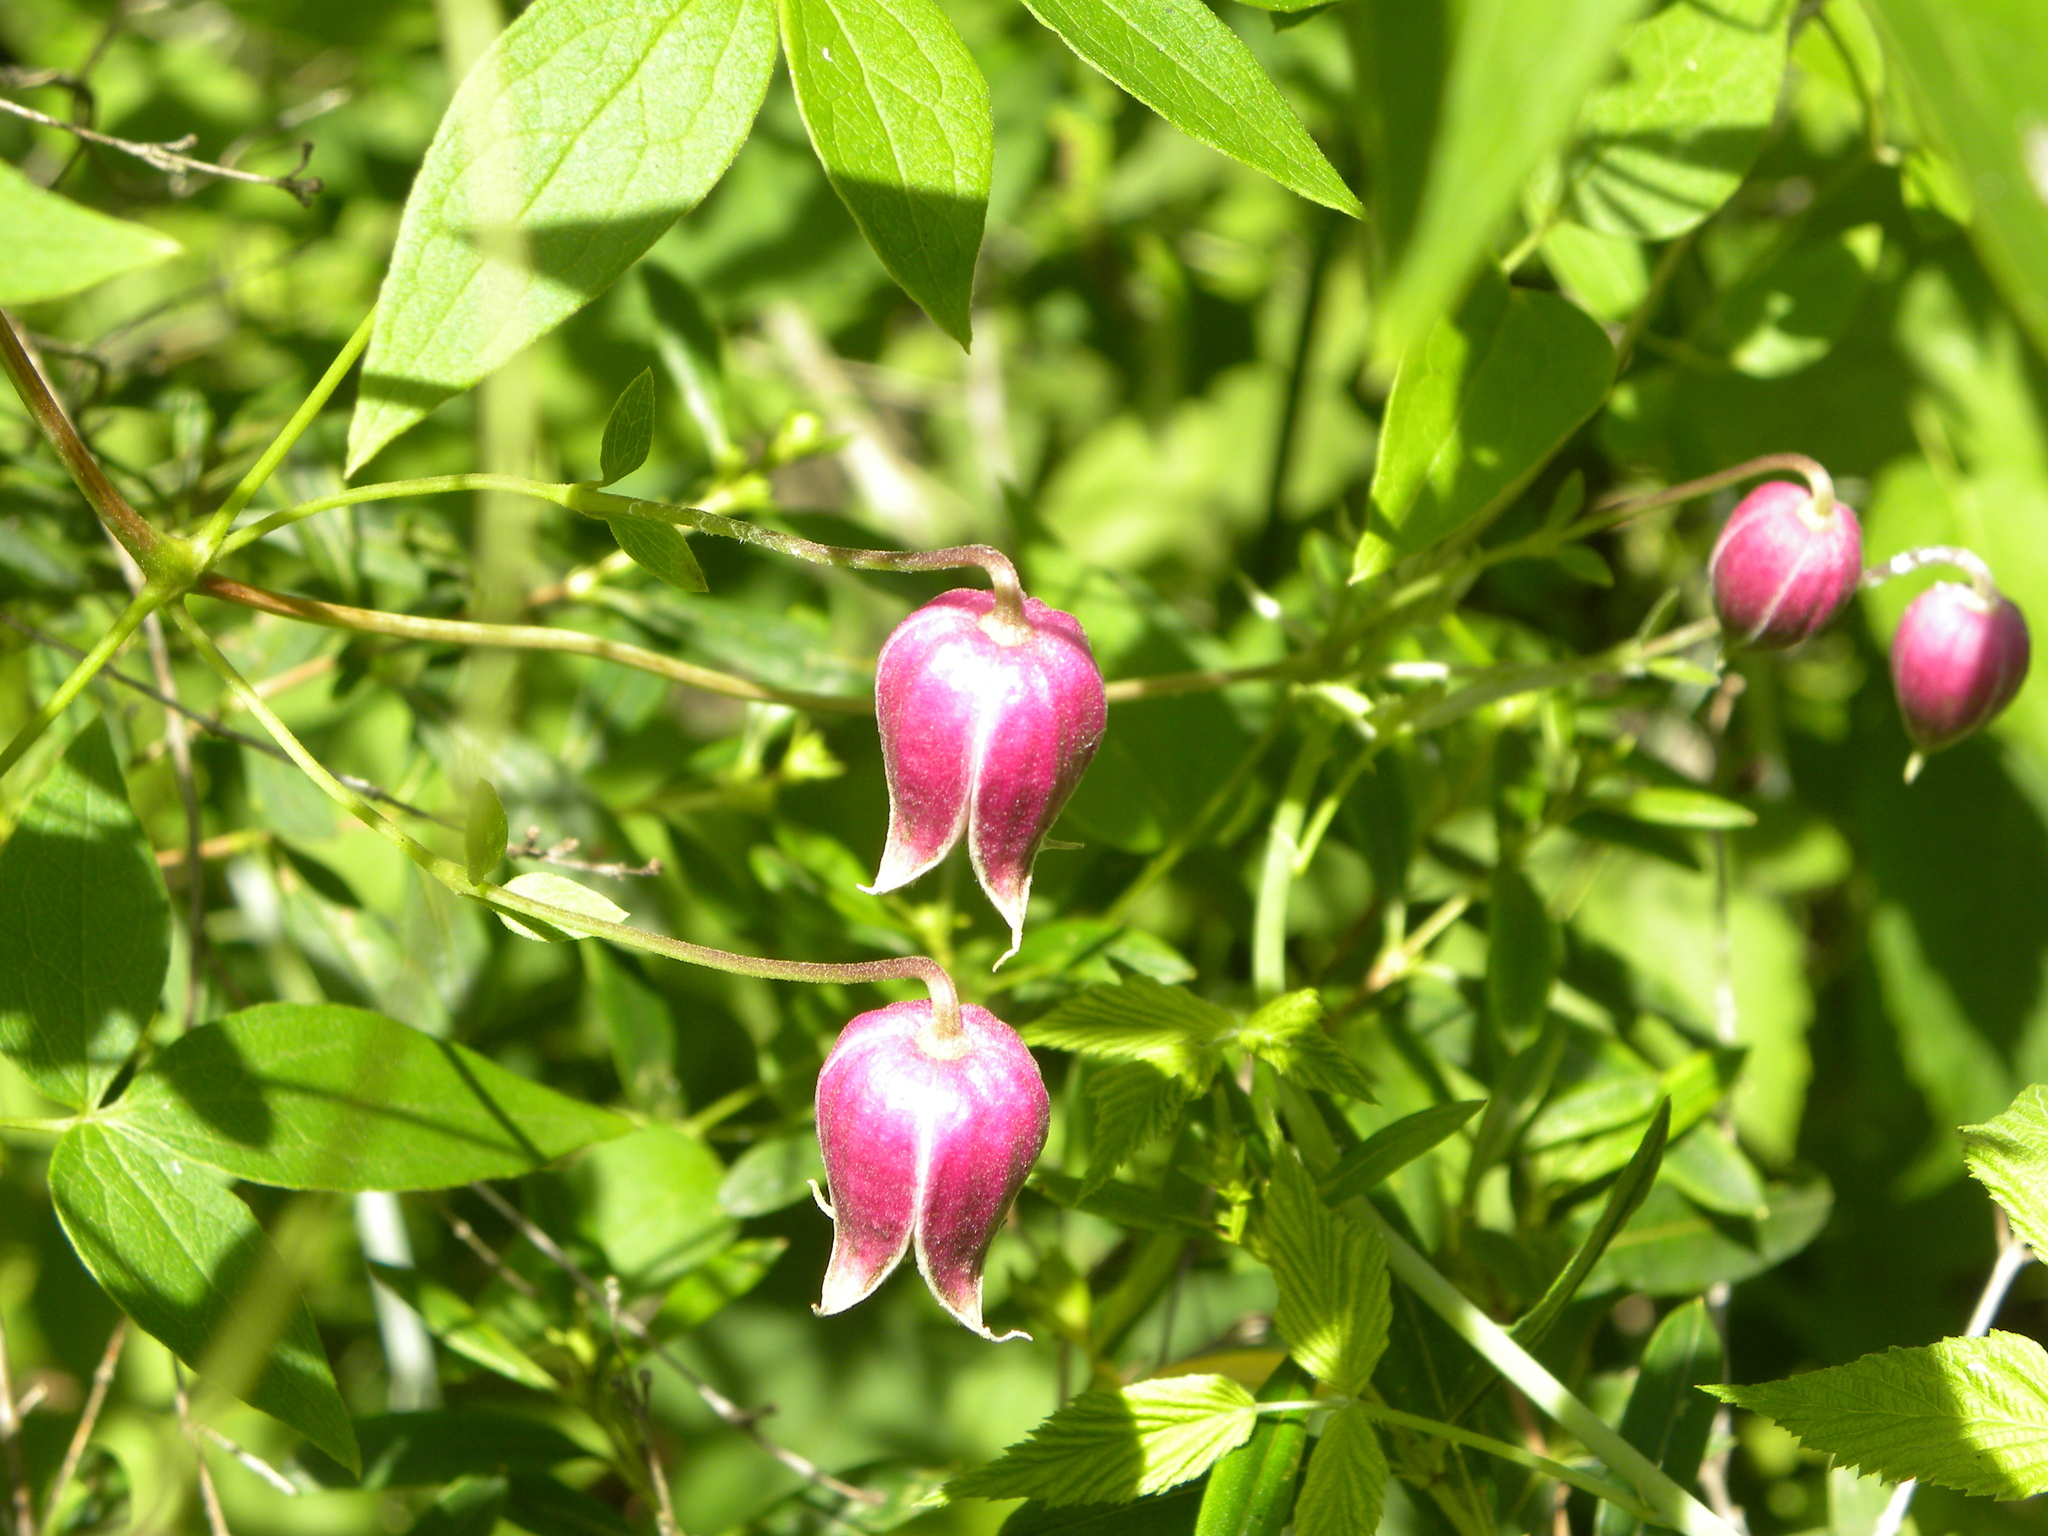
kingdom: Plantae
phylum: Tracheophyta
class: Magnoliopsida
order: Ranunculales
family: Ranunculaceae
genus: Clematis
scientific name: Clematis viorna
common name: Leather-flower
